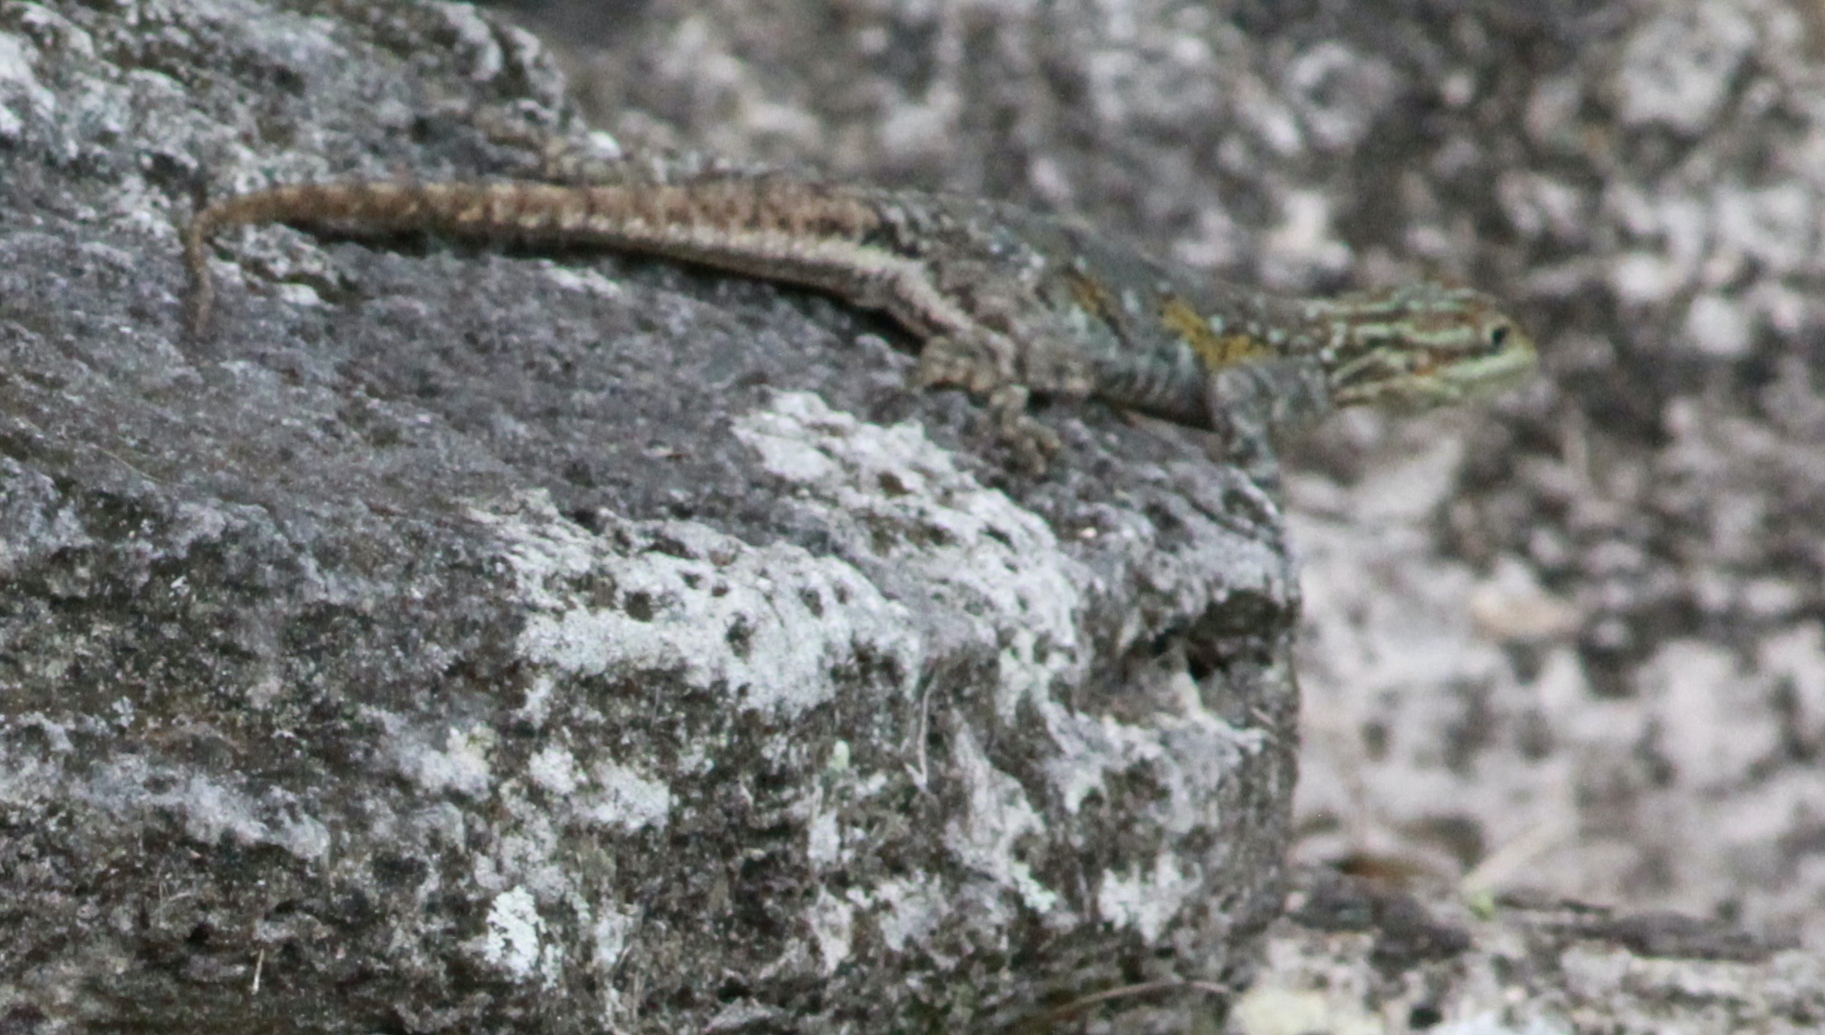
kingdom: Animalia
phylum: Chordata
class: Squamata
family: Agamidae
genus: Agama
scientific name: Agama picticauda
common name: Red-headed agama
